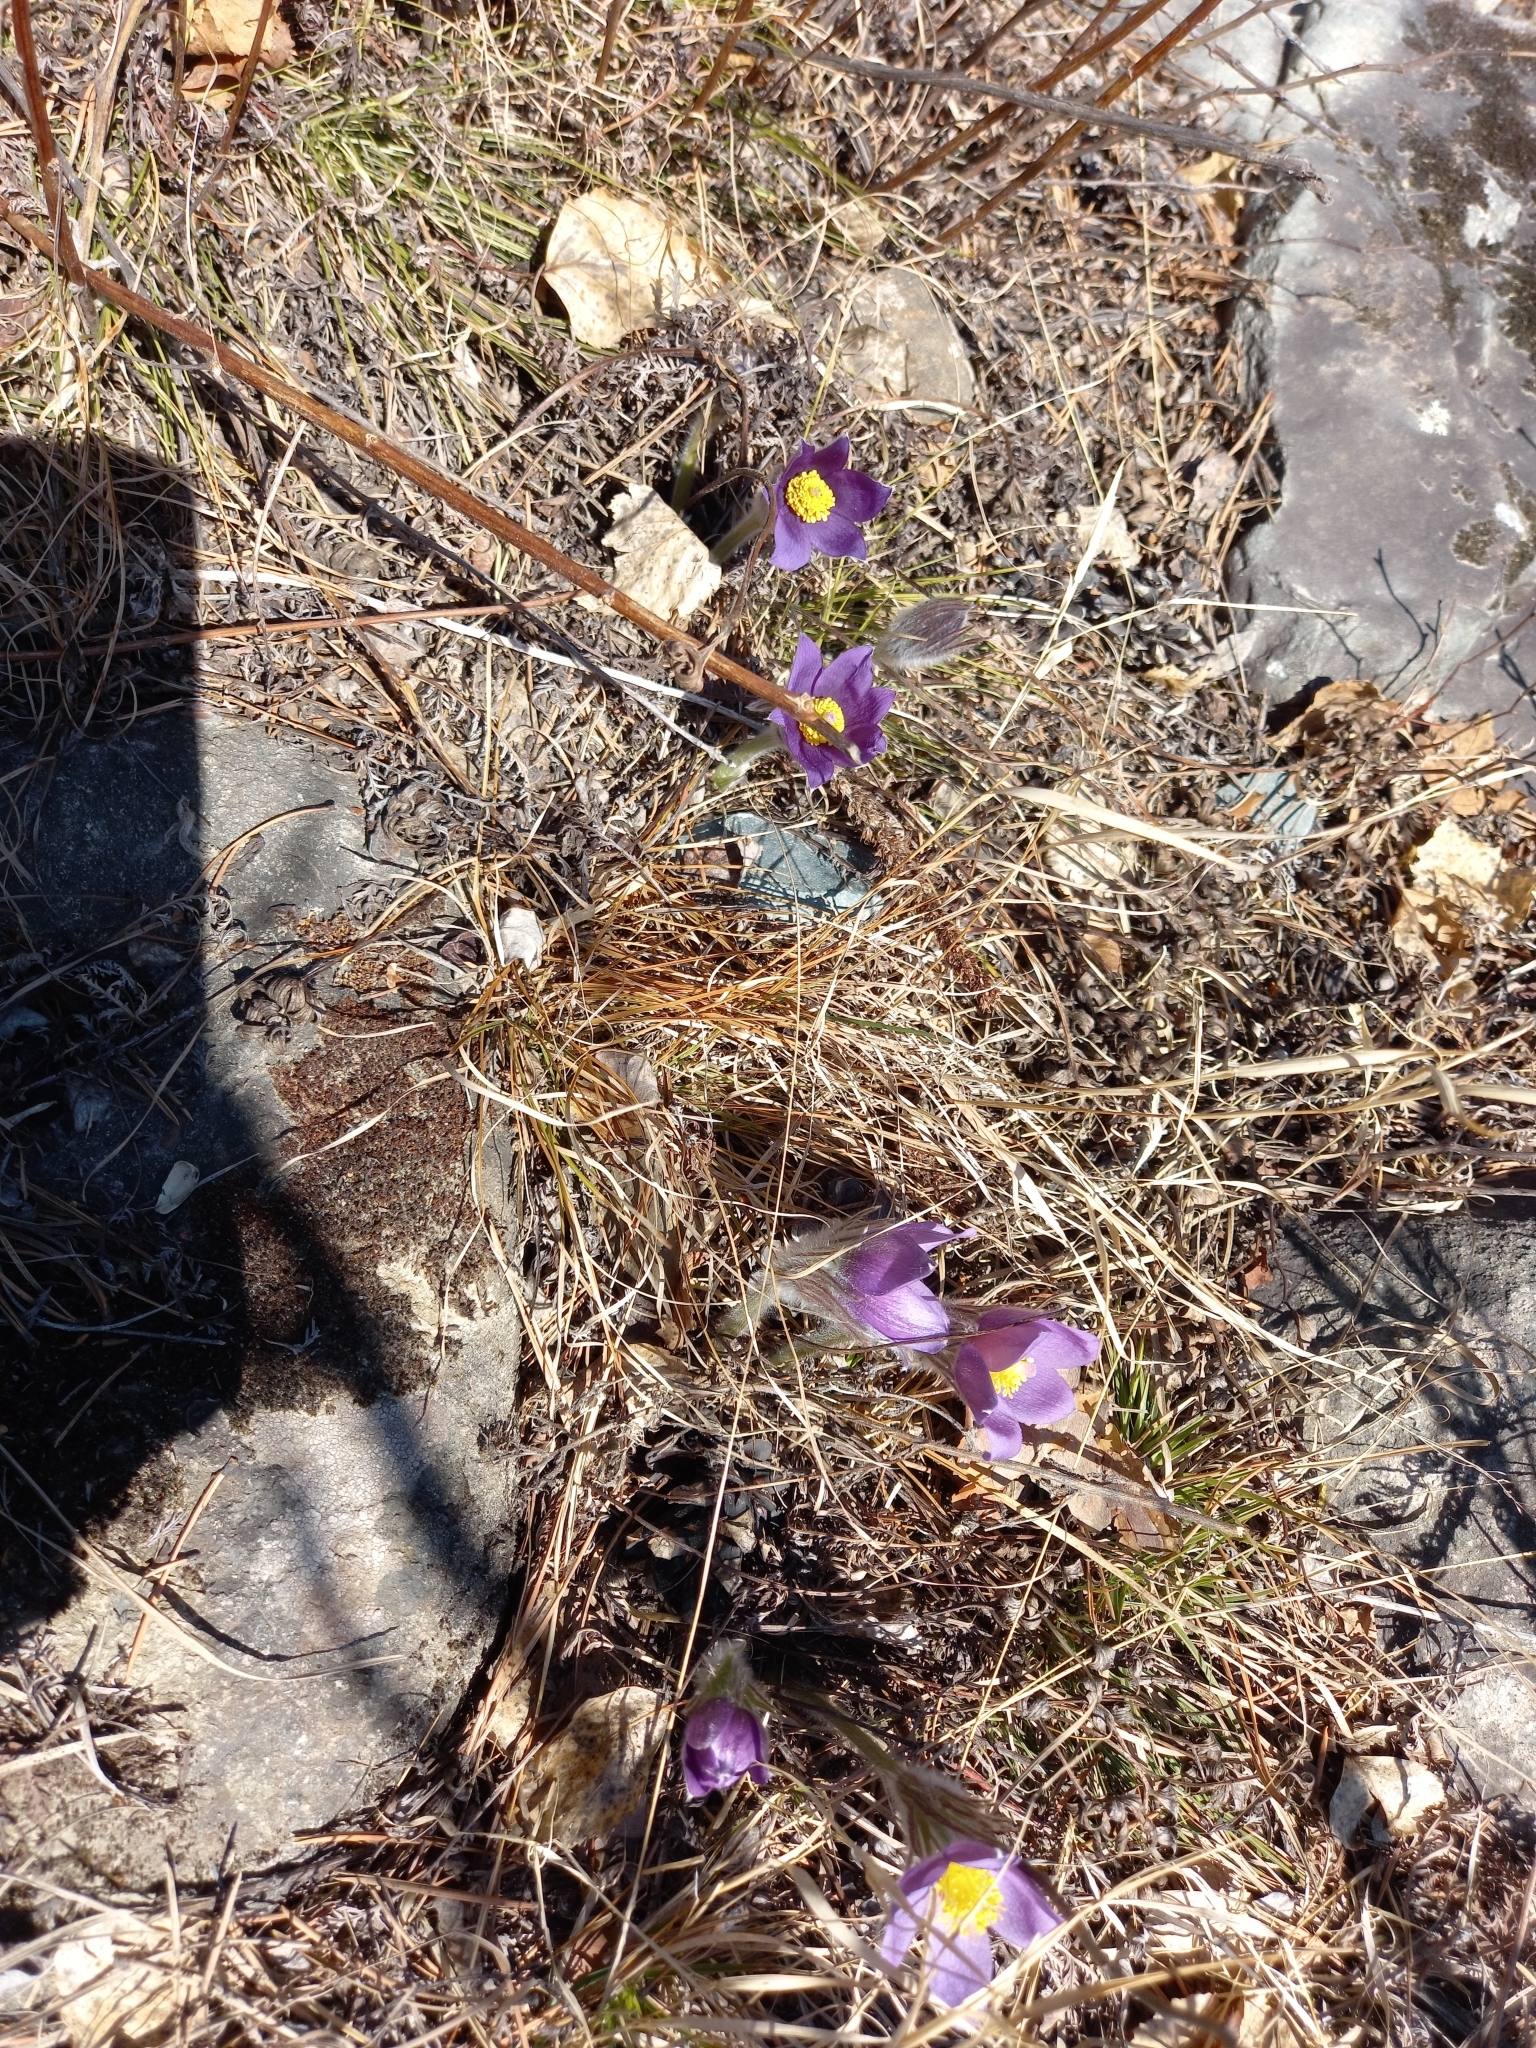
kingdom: Plantae
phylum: Tracheophyta
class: Magnoliopsida
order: Ranunculales
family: Ranunculaceae
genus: Pulsatilla
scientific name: Pulsatilla patens
